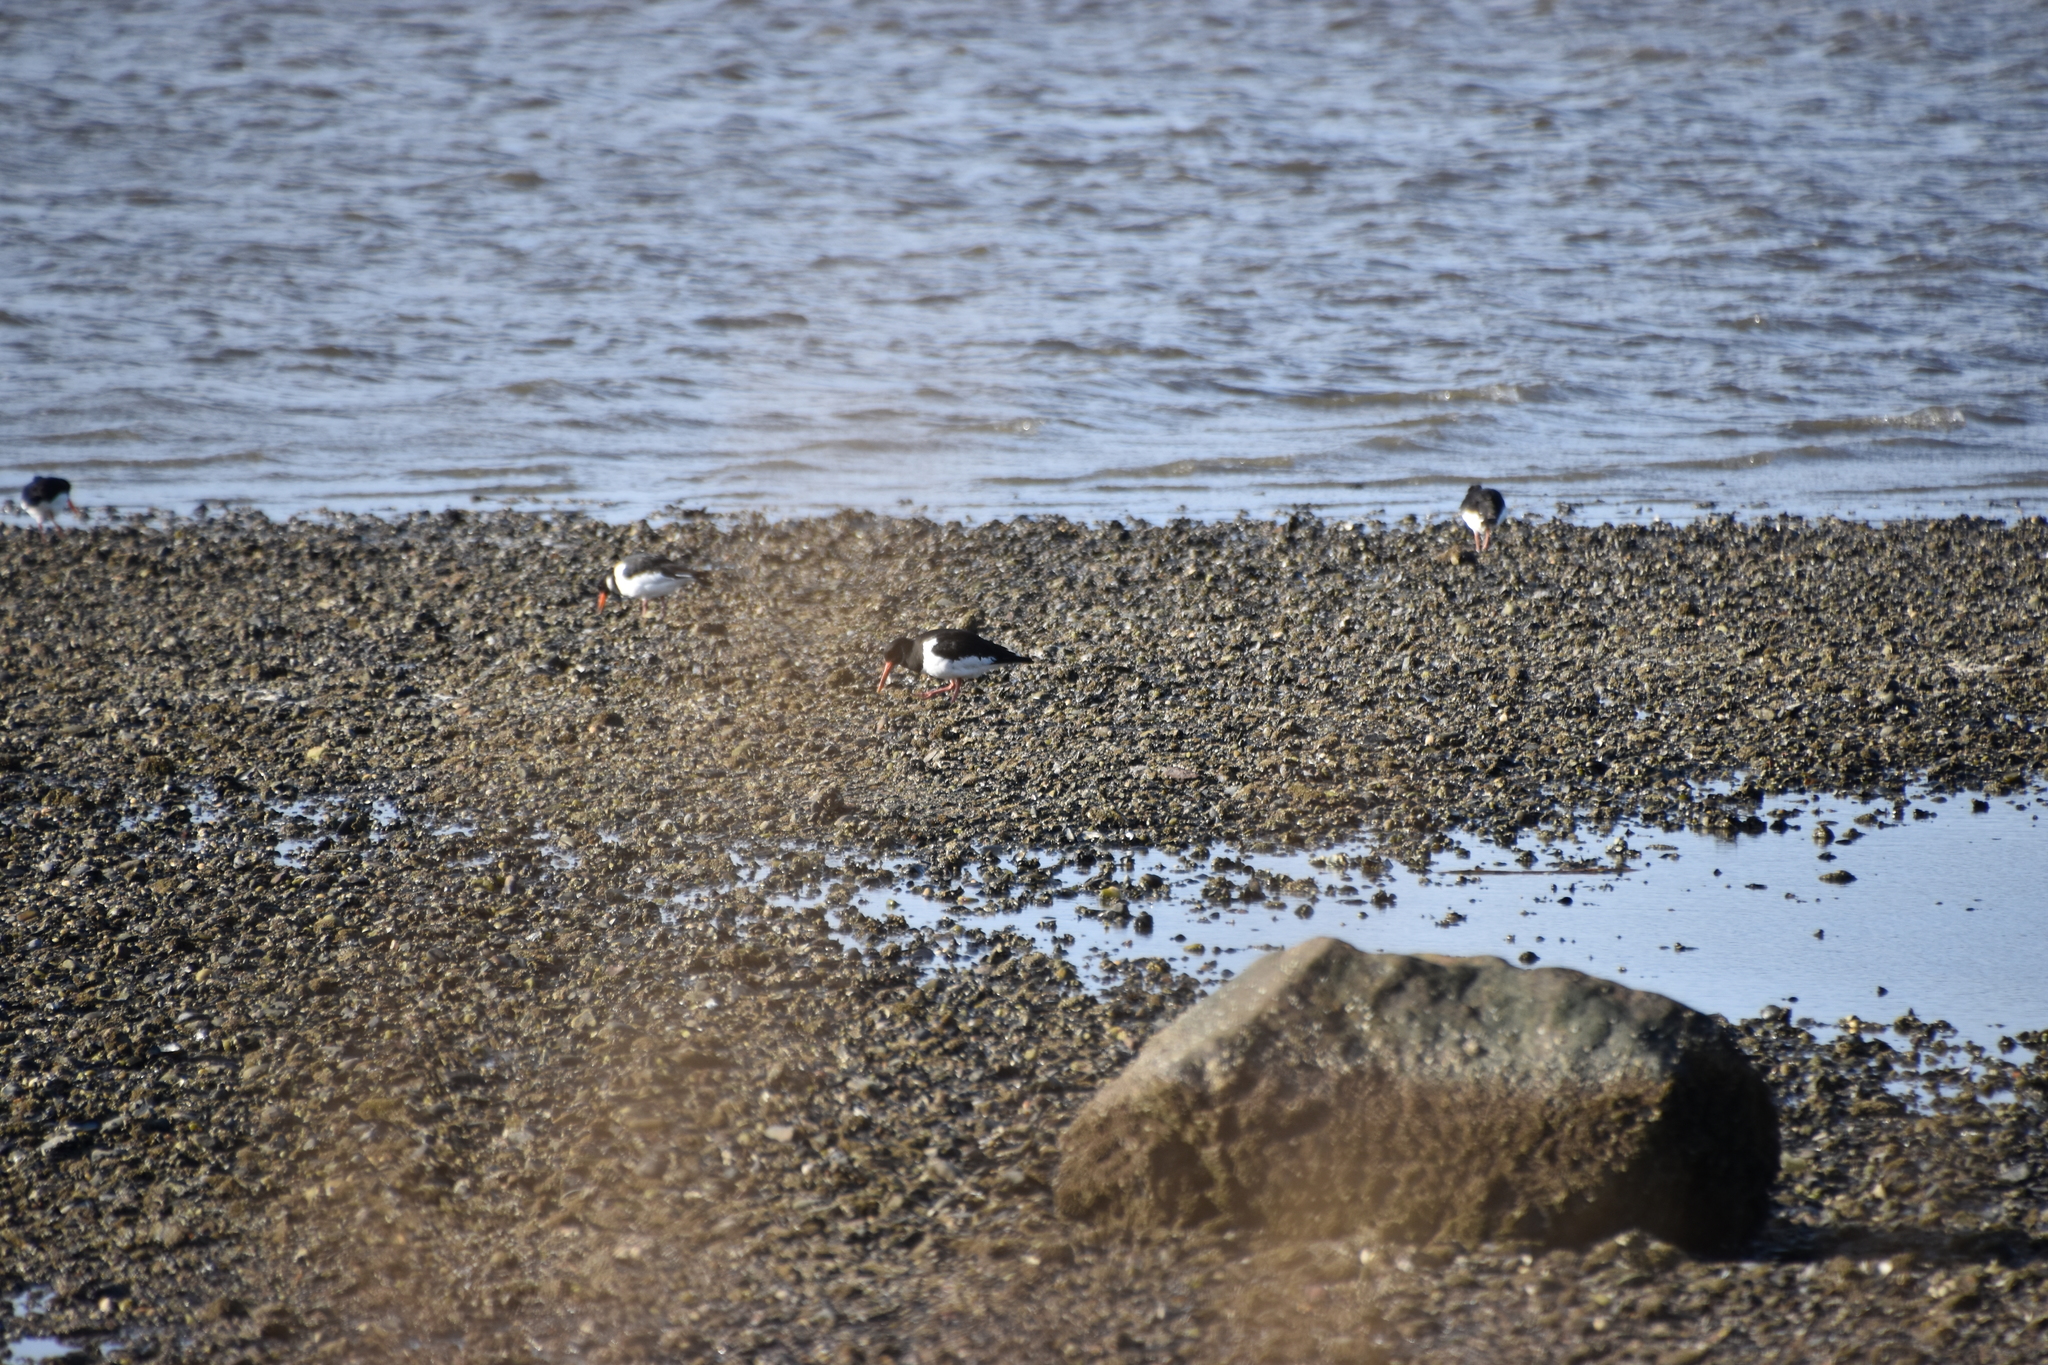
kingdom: Animalia
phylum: Chordata
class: Aves
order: Charadriiformes
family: Haematopodidae
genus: Haematopus
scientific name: Haematopus ostralegus
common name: Eurasian oystercatcher
